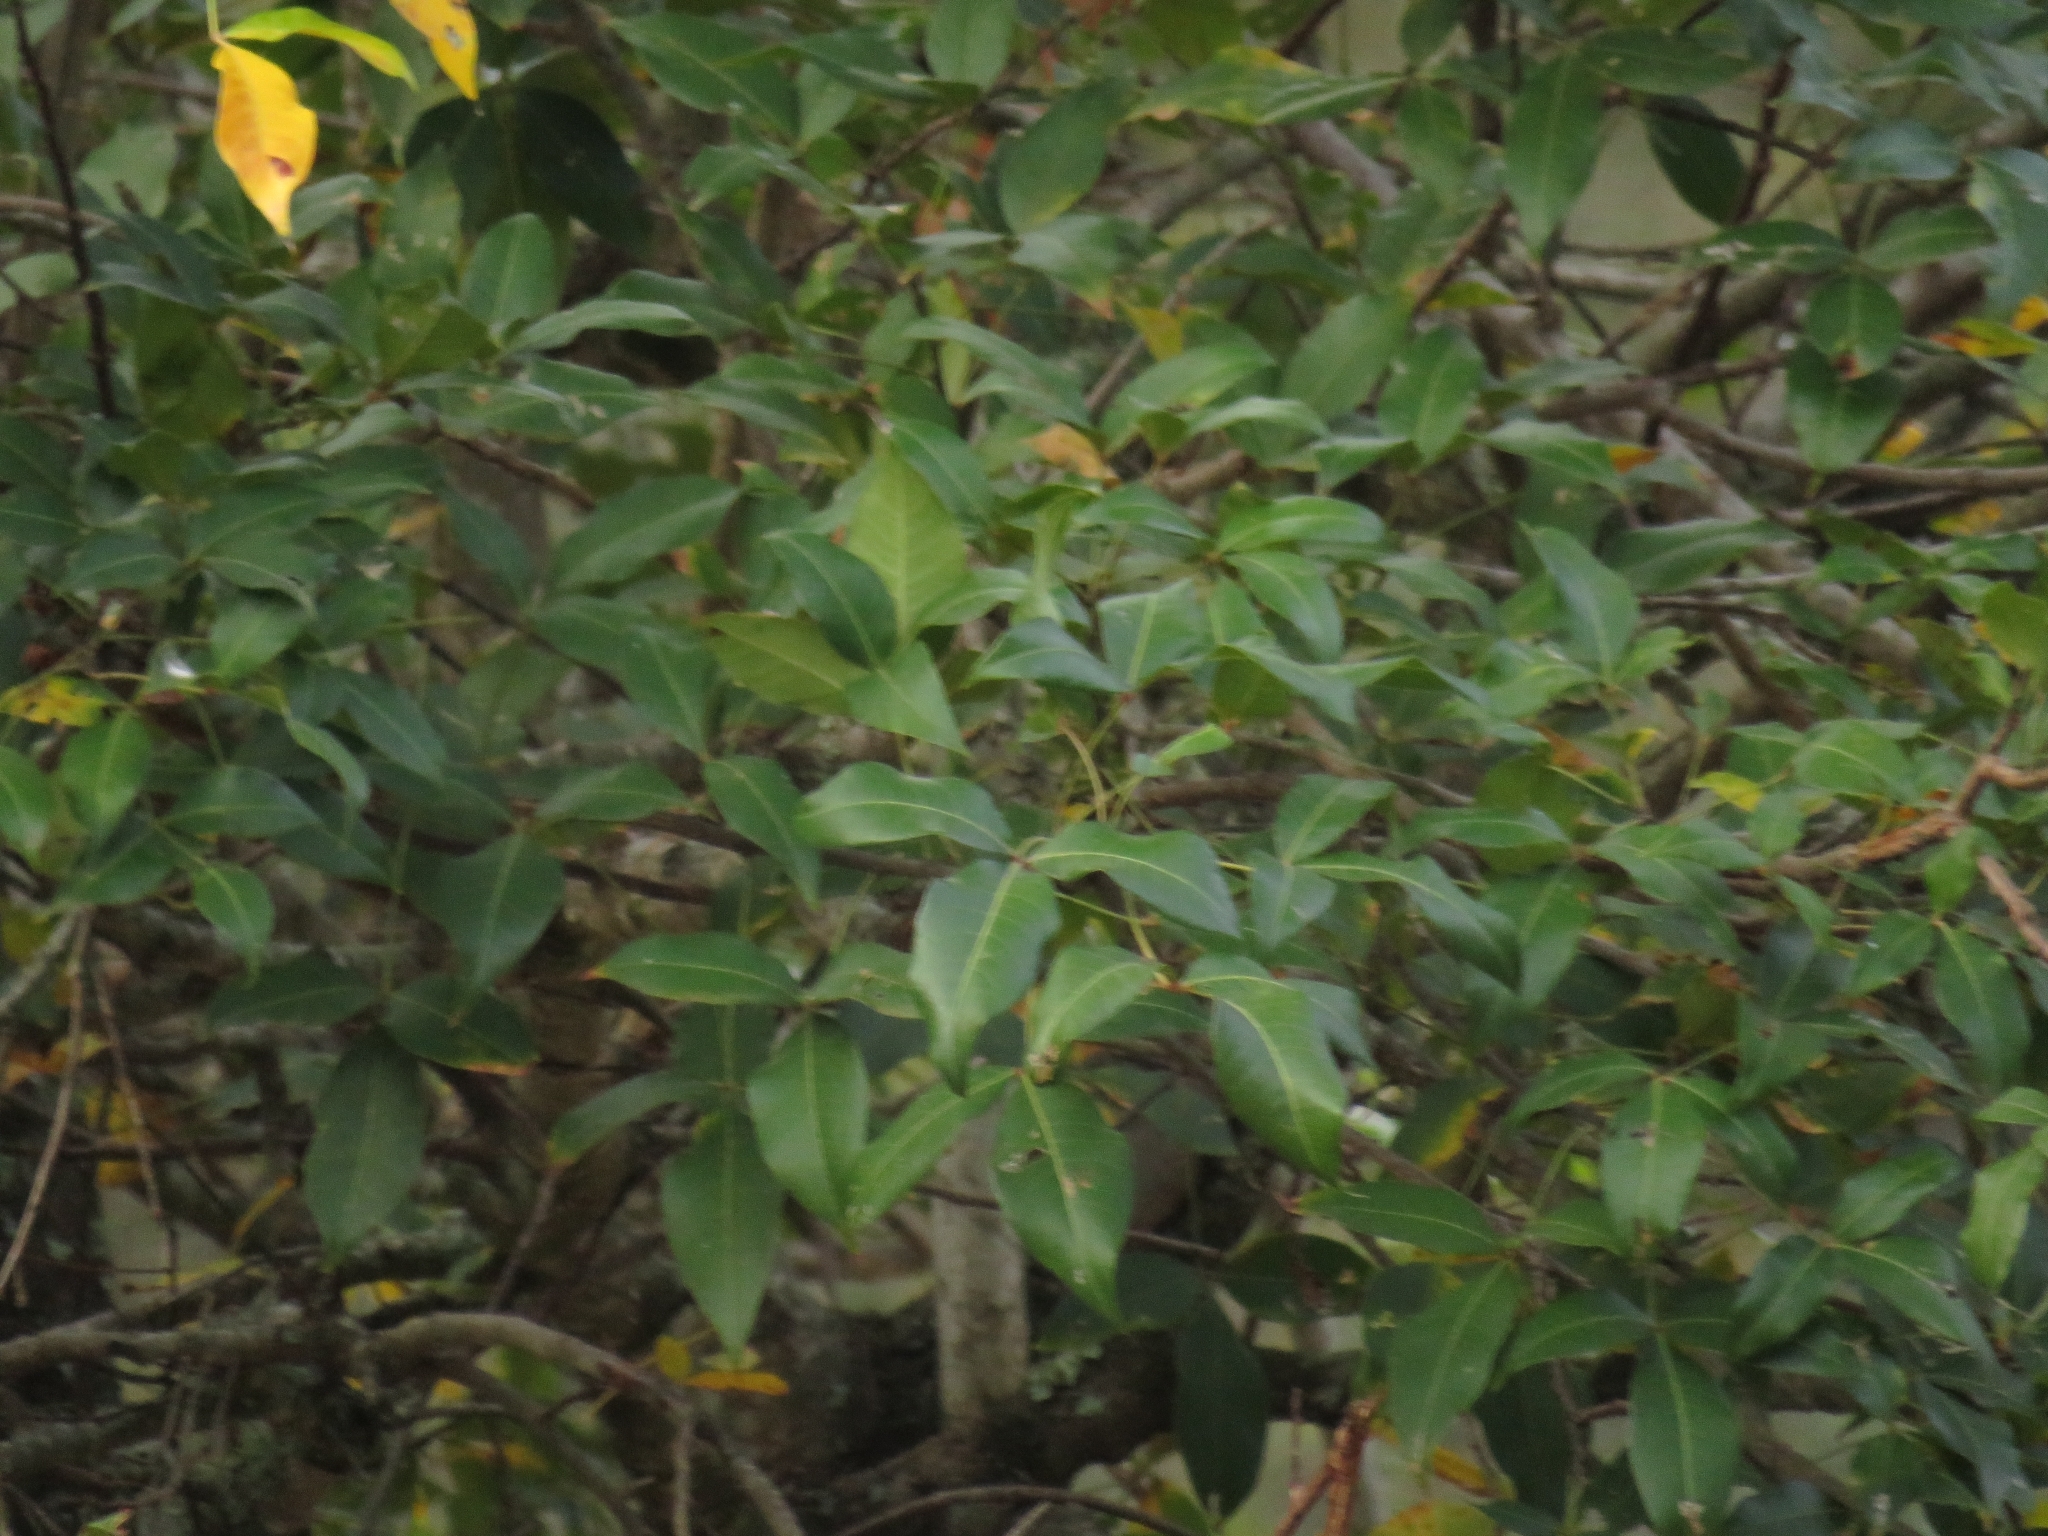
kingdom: Plantae
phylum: Tracheophyta
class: Magnoliopsida
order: Sapindales
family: Anacardiaceae
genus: Searsia
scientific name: Searsia chirindensis
